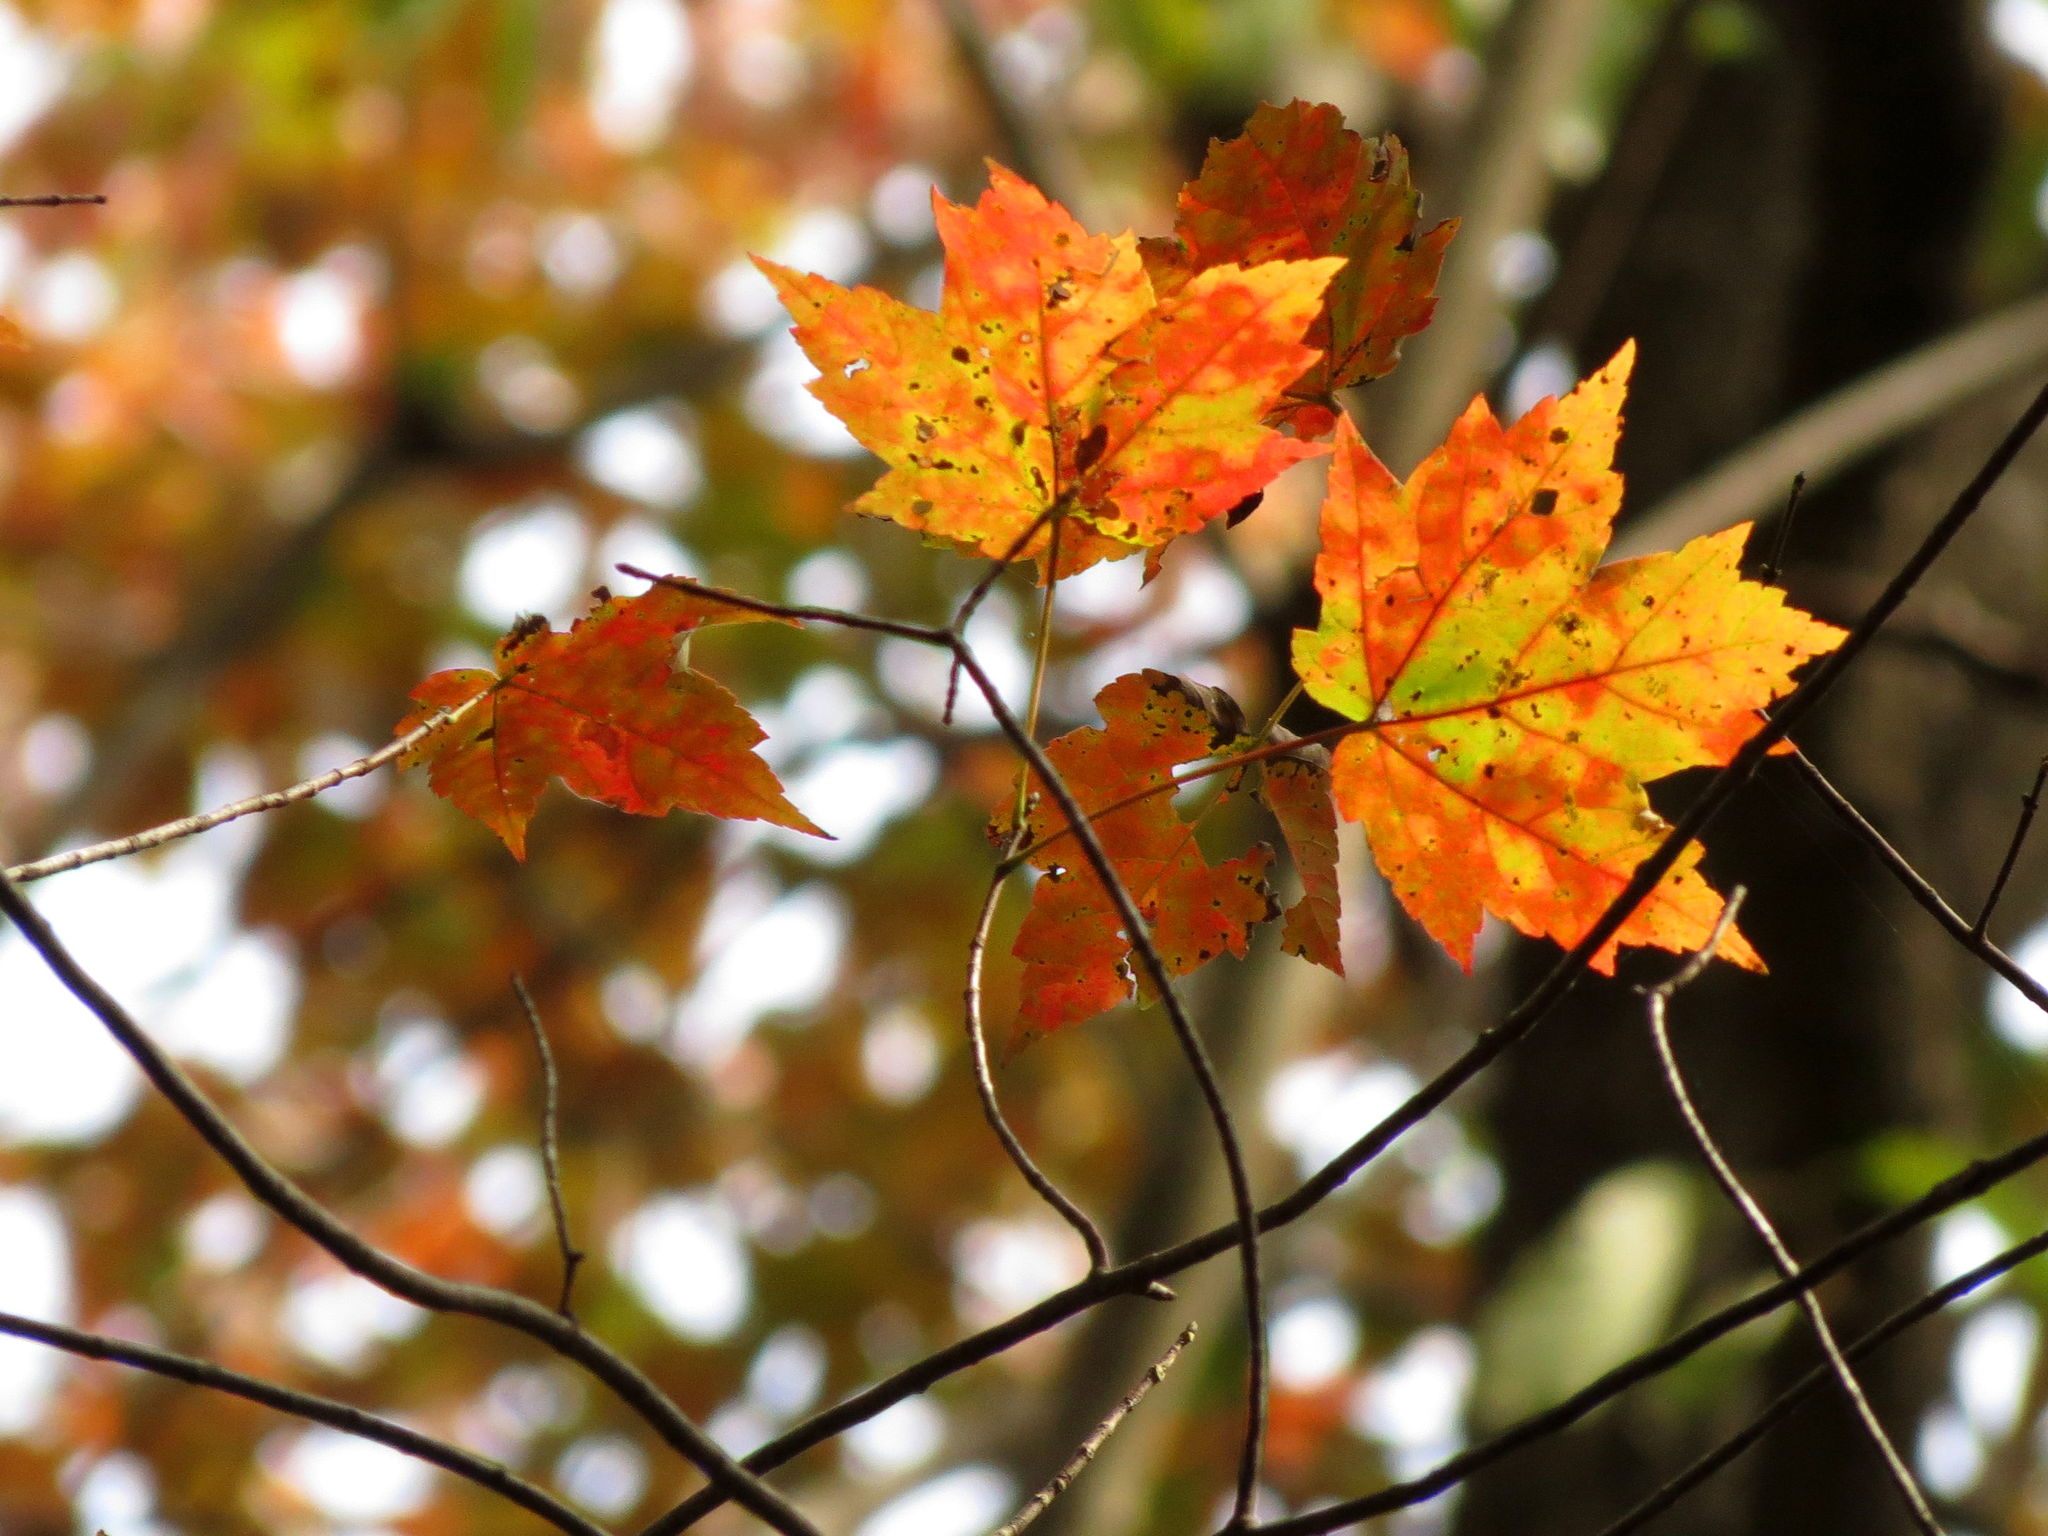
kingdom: Plantae
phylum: Tracheophyta
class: Magnoliopsida
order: Sapindales
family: Sapindaceae
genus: Acer
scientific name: Acer rubrum
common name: Red maple
